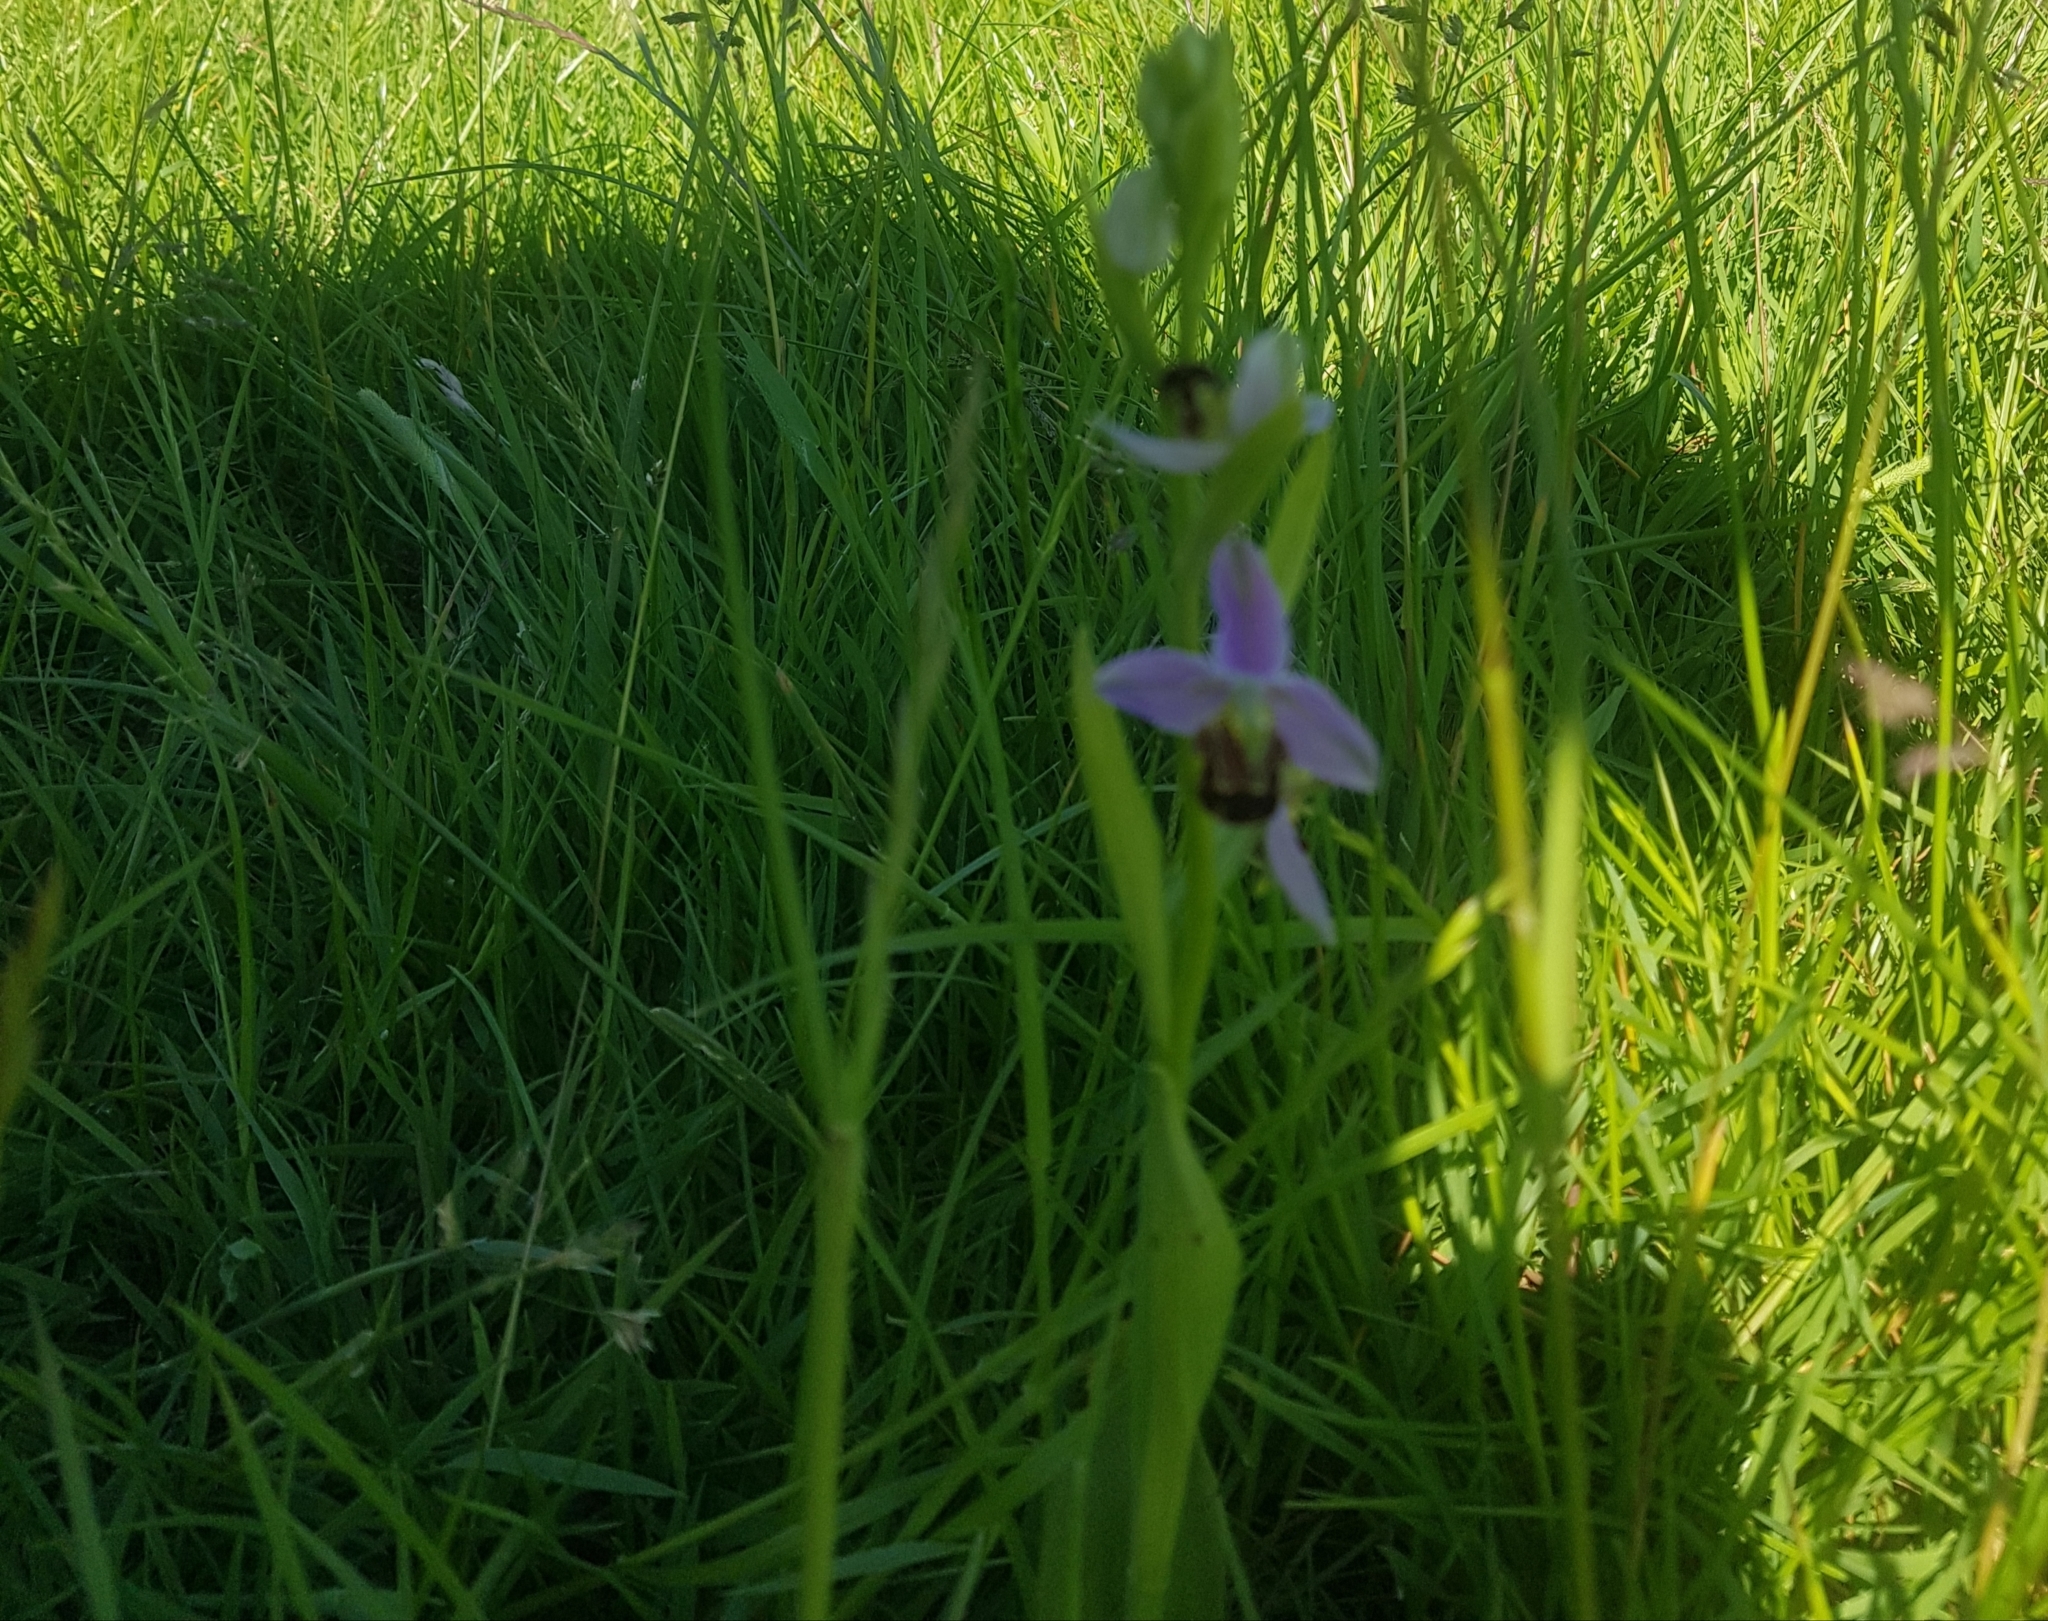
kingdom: Plantae
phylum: Tracheophyta
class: Liliopsida
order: Asparagales
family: Orchidaceae
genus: Ophrys
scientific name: Ophrys apifera
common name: Bee orchid
